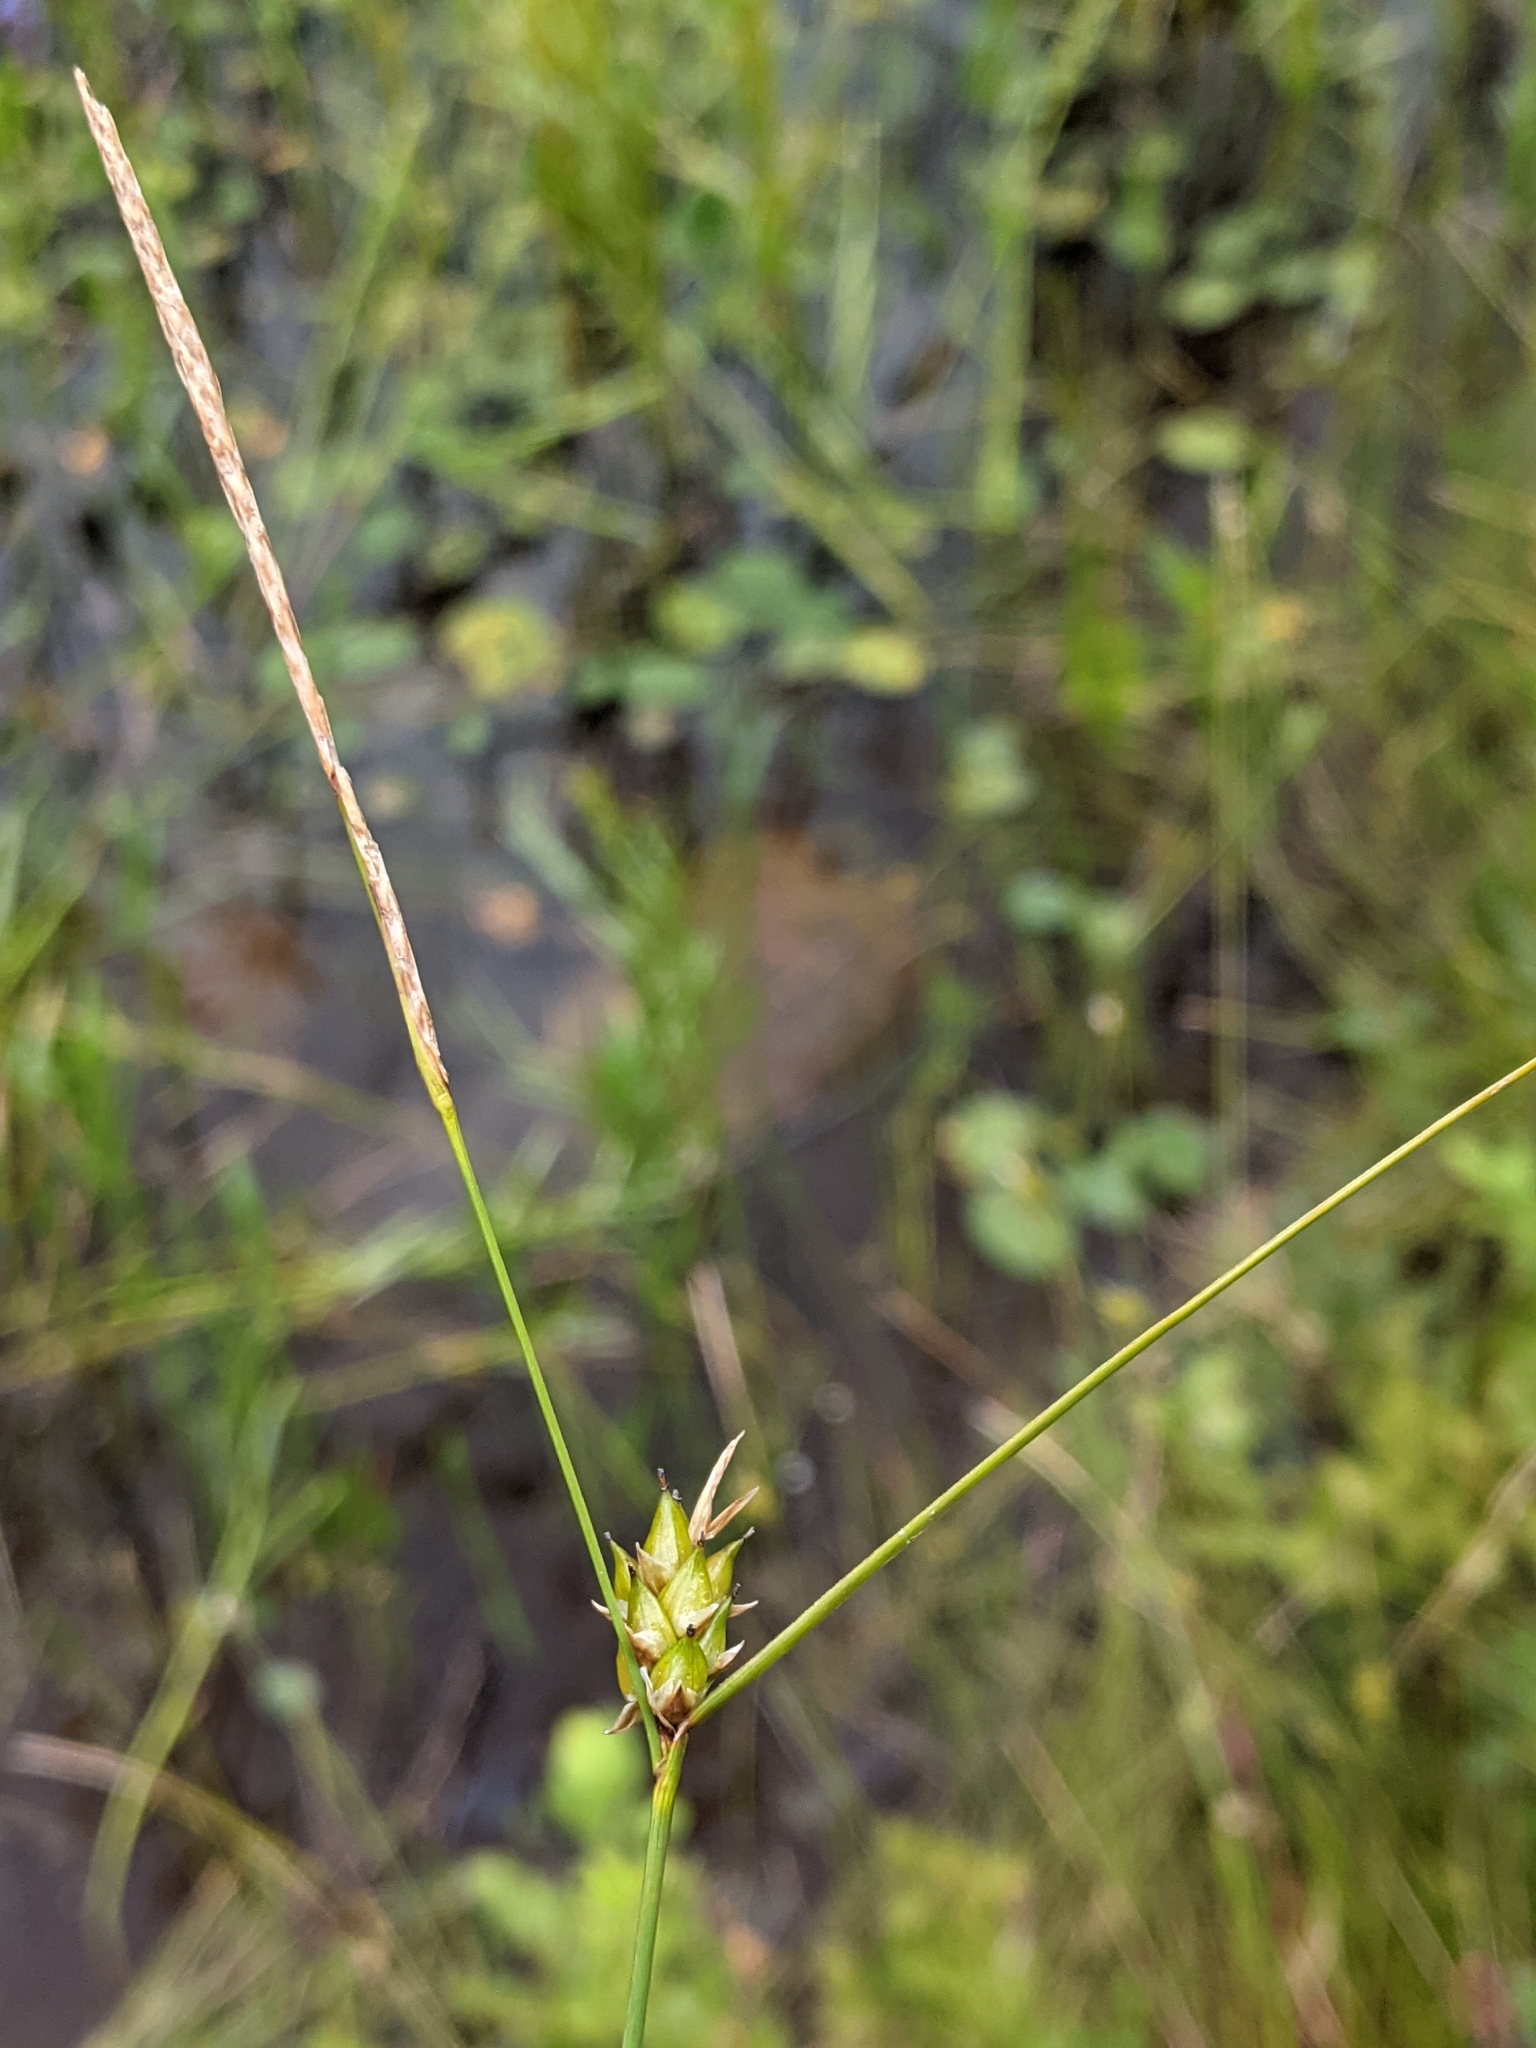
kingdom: Plantae
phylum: Tracheophyta
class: Liliopsida
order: Poales
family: Cyperaceae
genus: Carex
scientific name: Carex oligosperma
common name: Few-seed sedge
